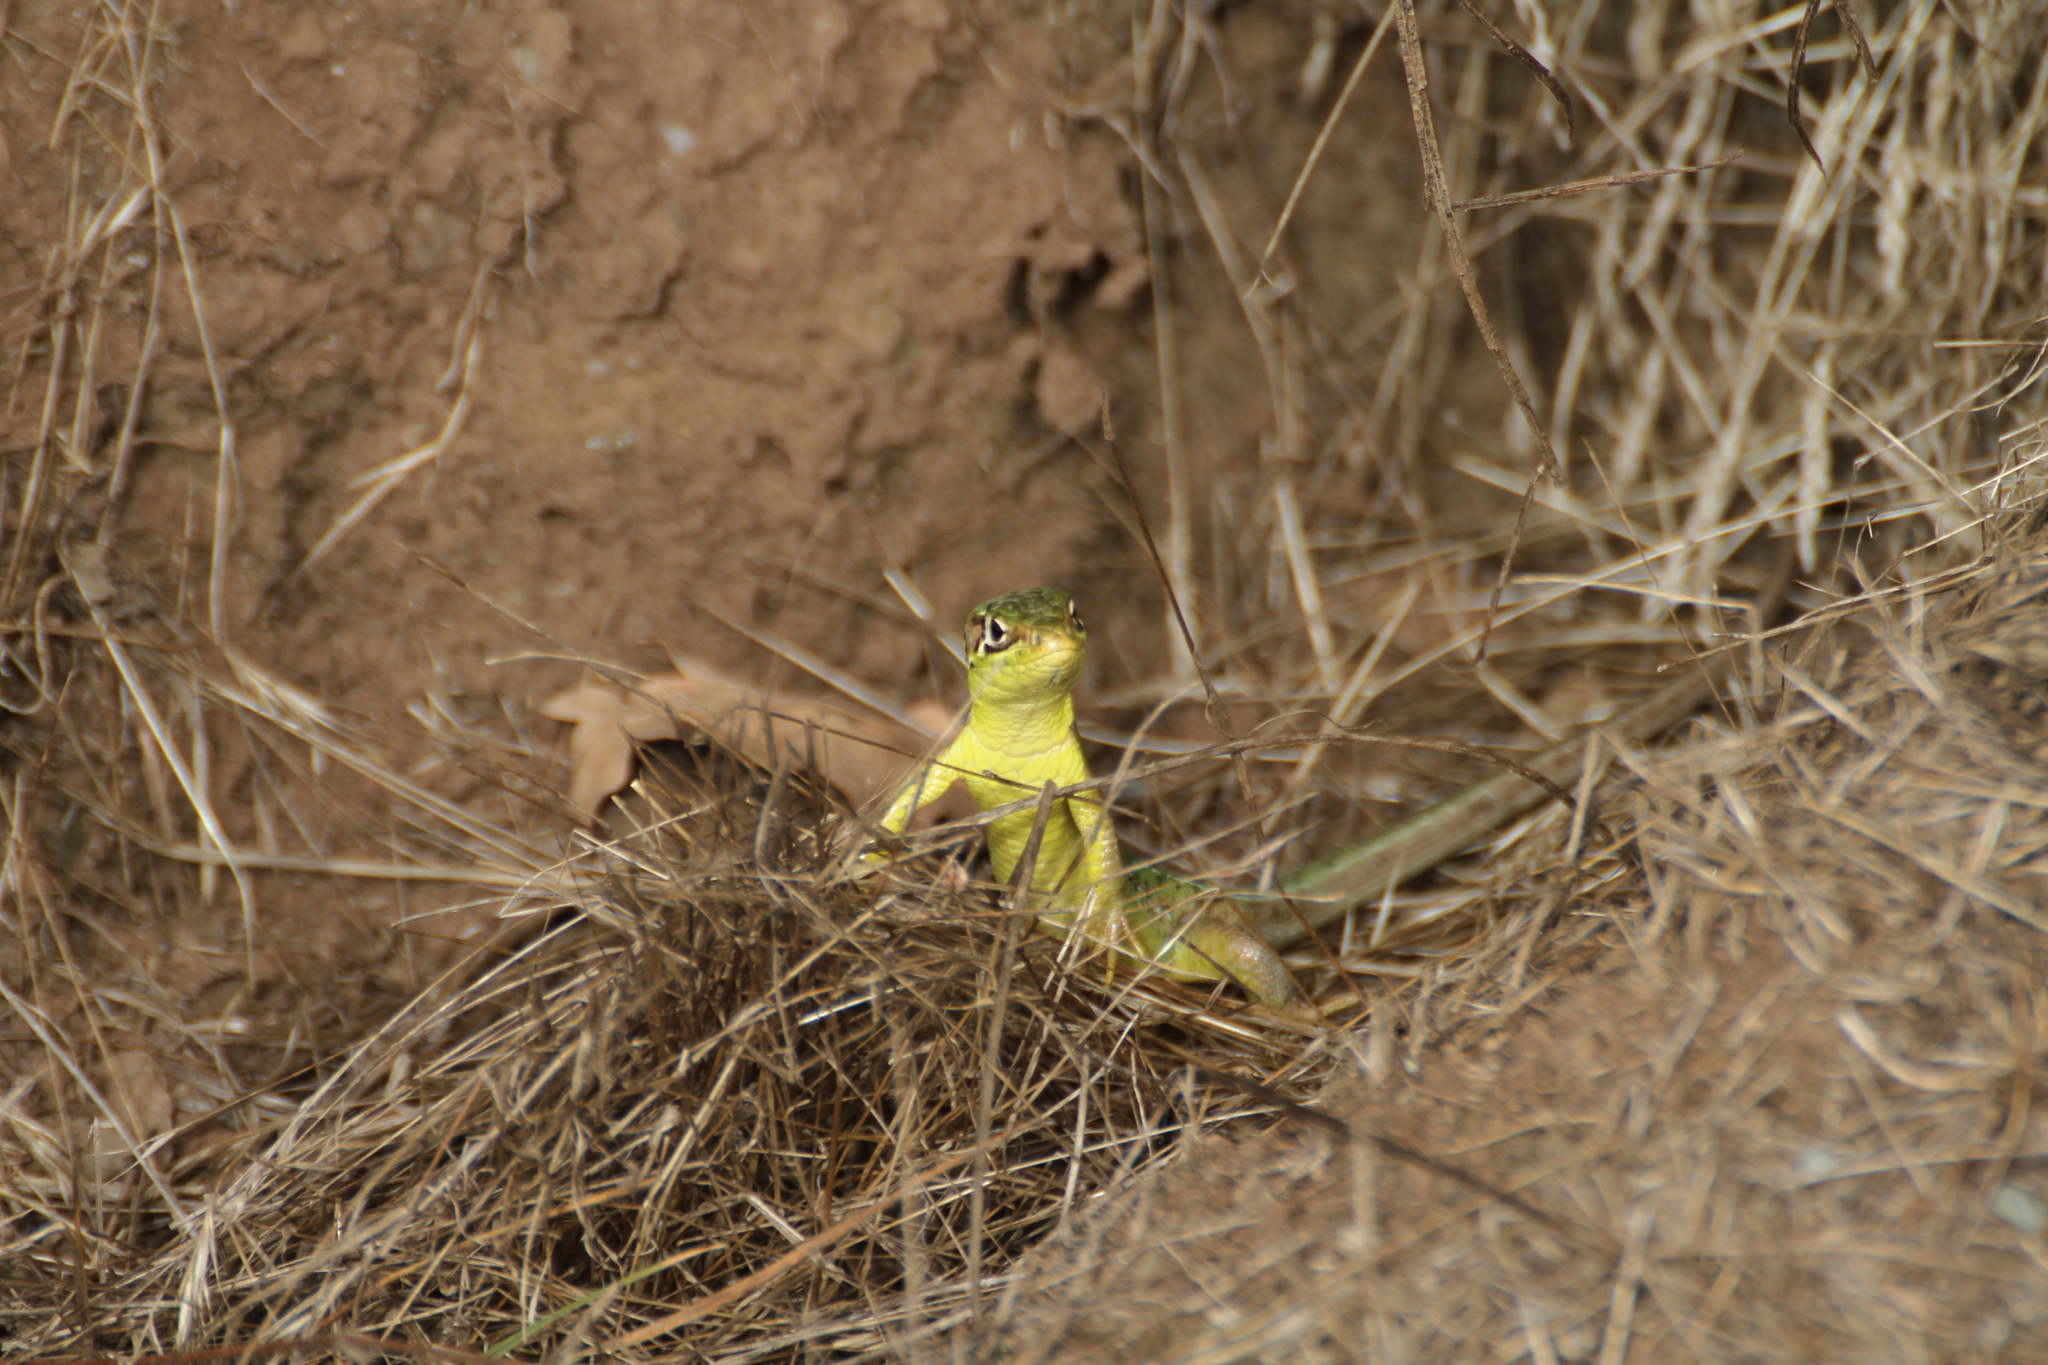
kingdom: Animalia
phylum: Chordata
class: Squamata
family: Lacertidae
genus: Lacerta
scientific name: Lacerta bilineata
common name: Western green lizard
